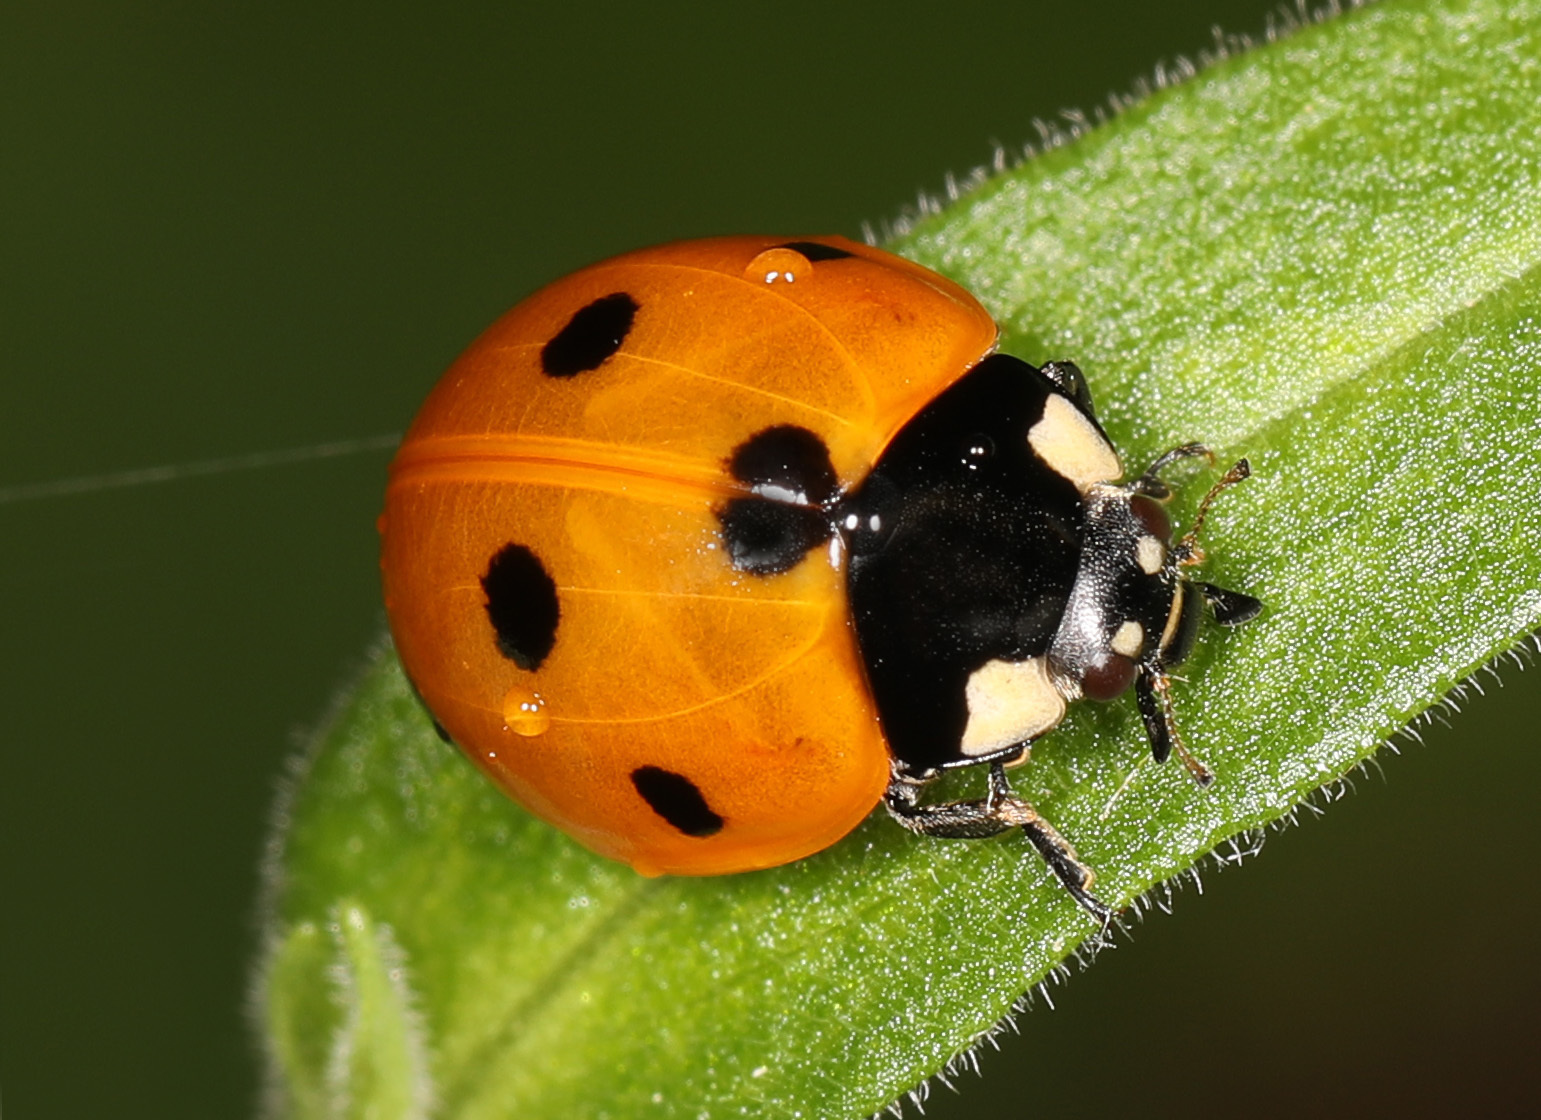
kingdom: Animalia
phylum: Arthropoda
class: Insecta
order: Coleoptera
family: Coccinellidae
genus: Coccinella
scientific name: Coccinella septempunctata
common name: Sevenspotted lady beetle
